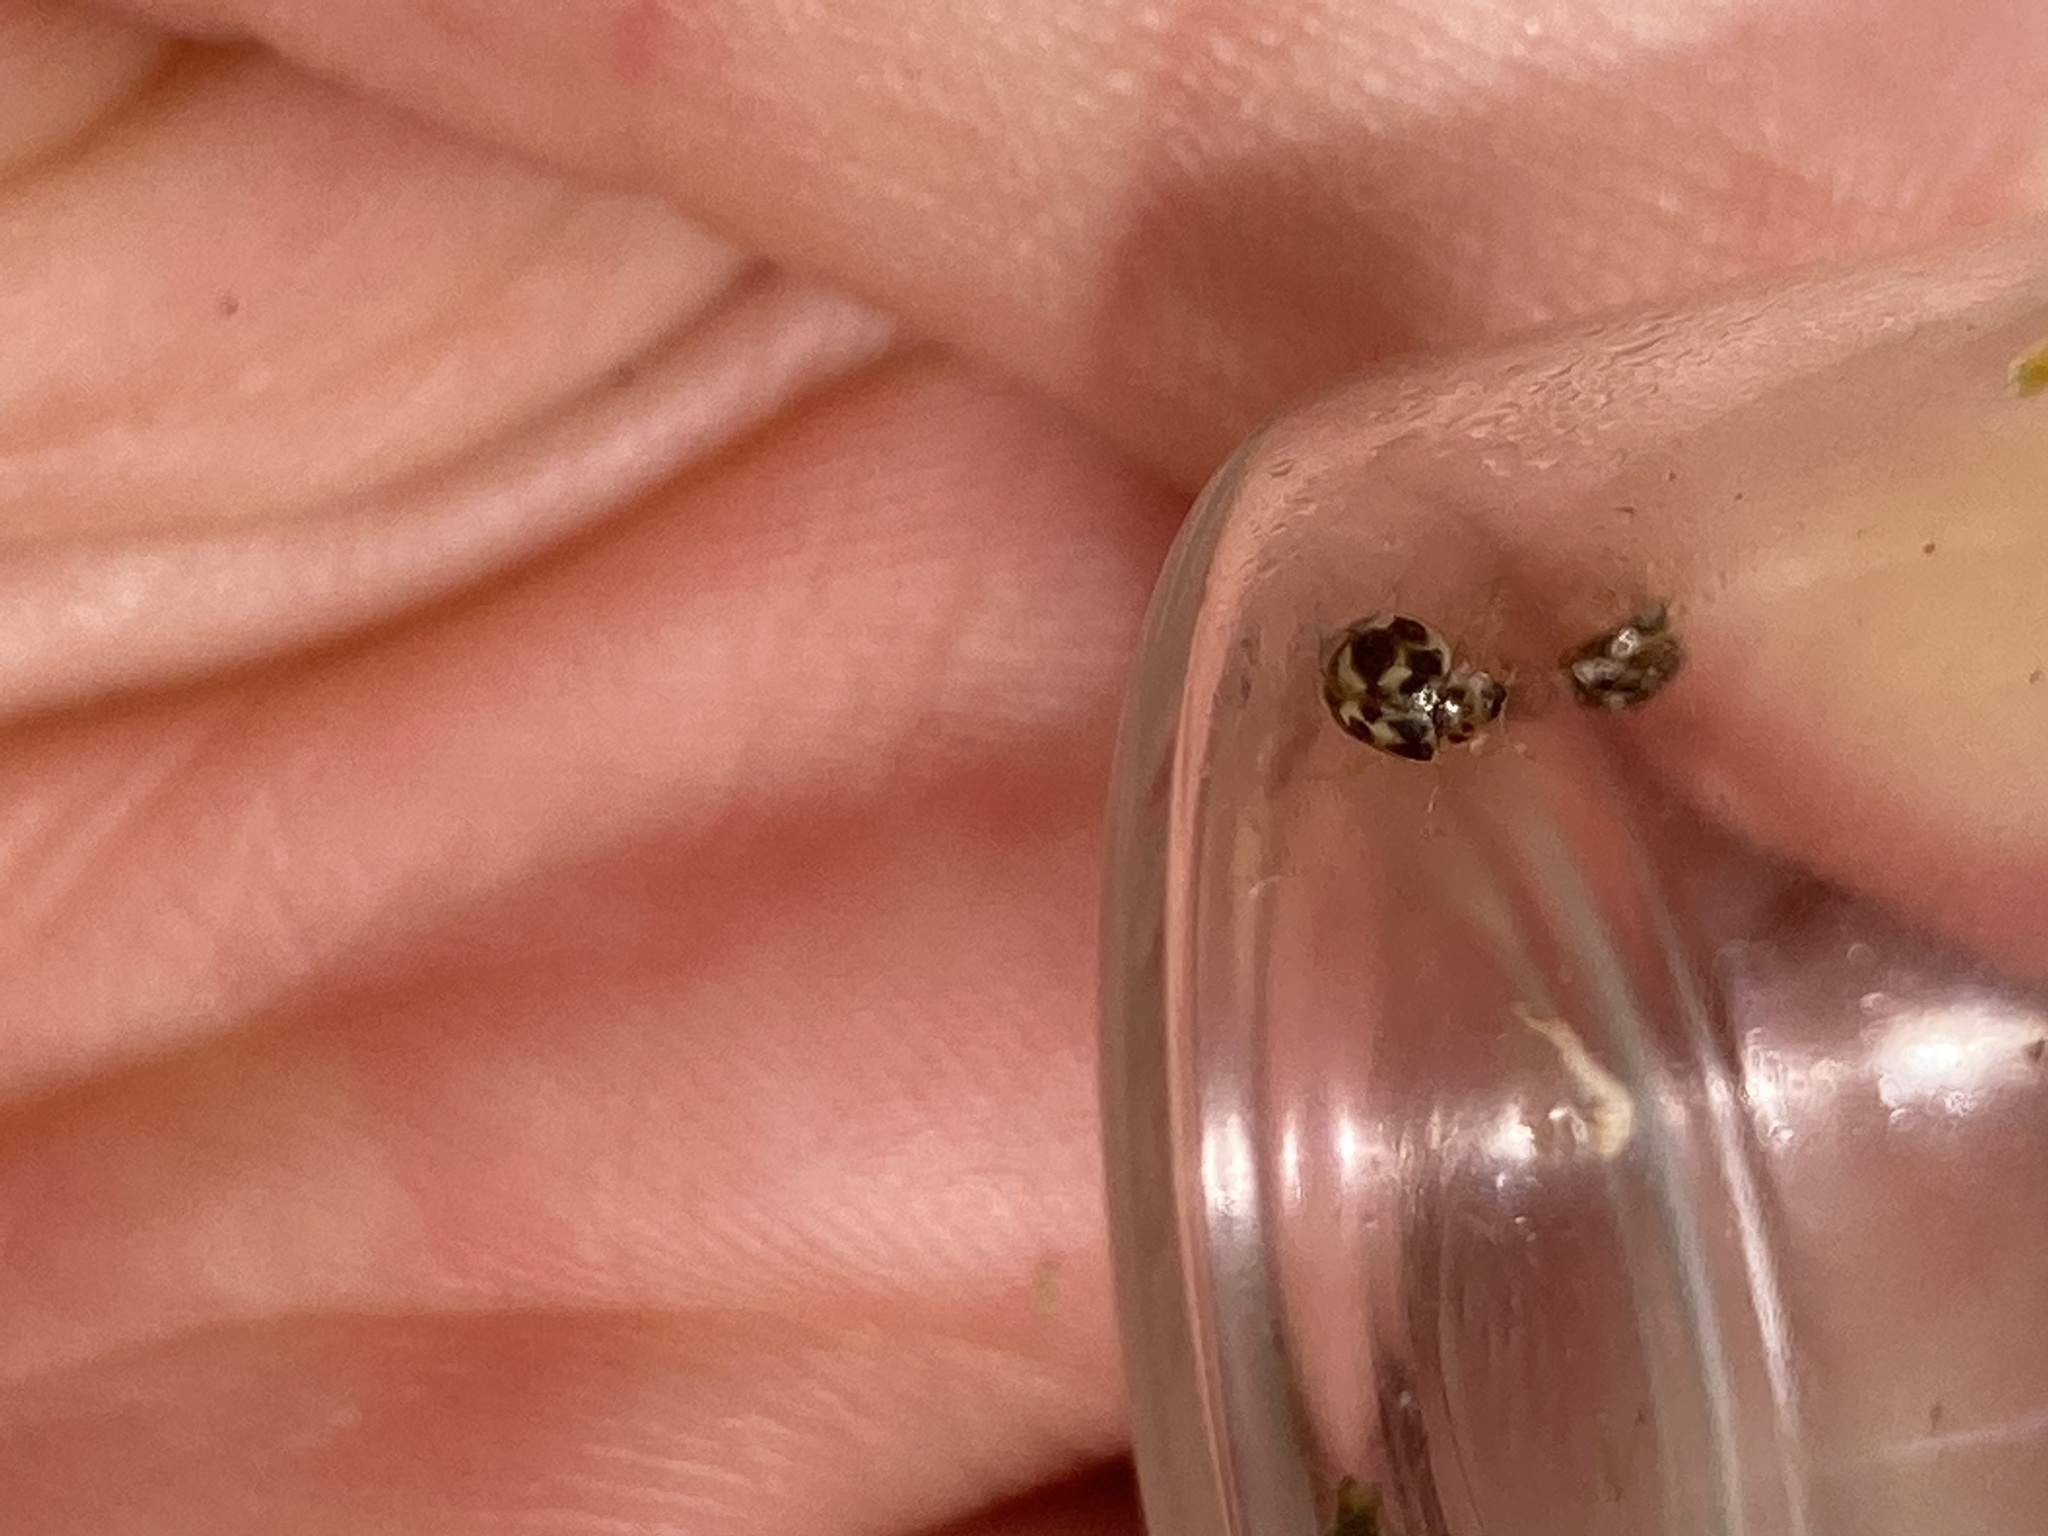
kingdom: Animalia
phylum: Arthropoda
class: Insecta
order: Coleoptera
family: Coccinellidae
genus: Psyllobora
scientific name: Psyllobora vigintimaculata
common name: Ladybird beetle
